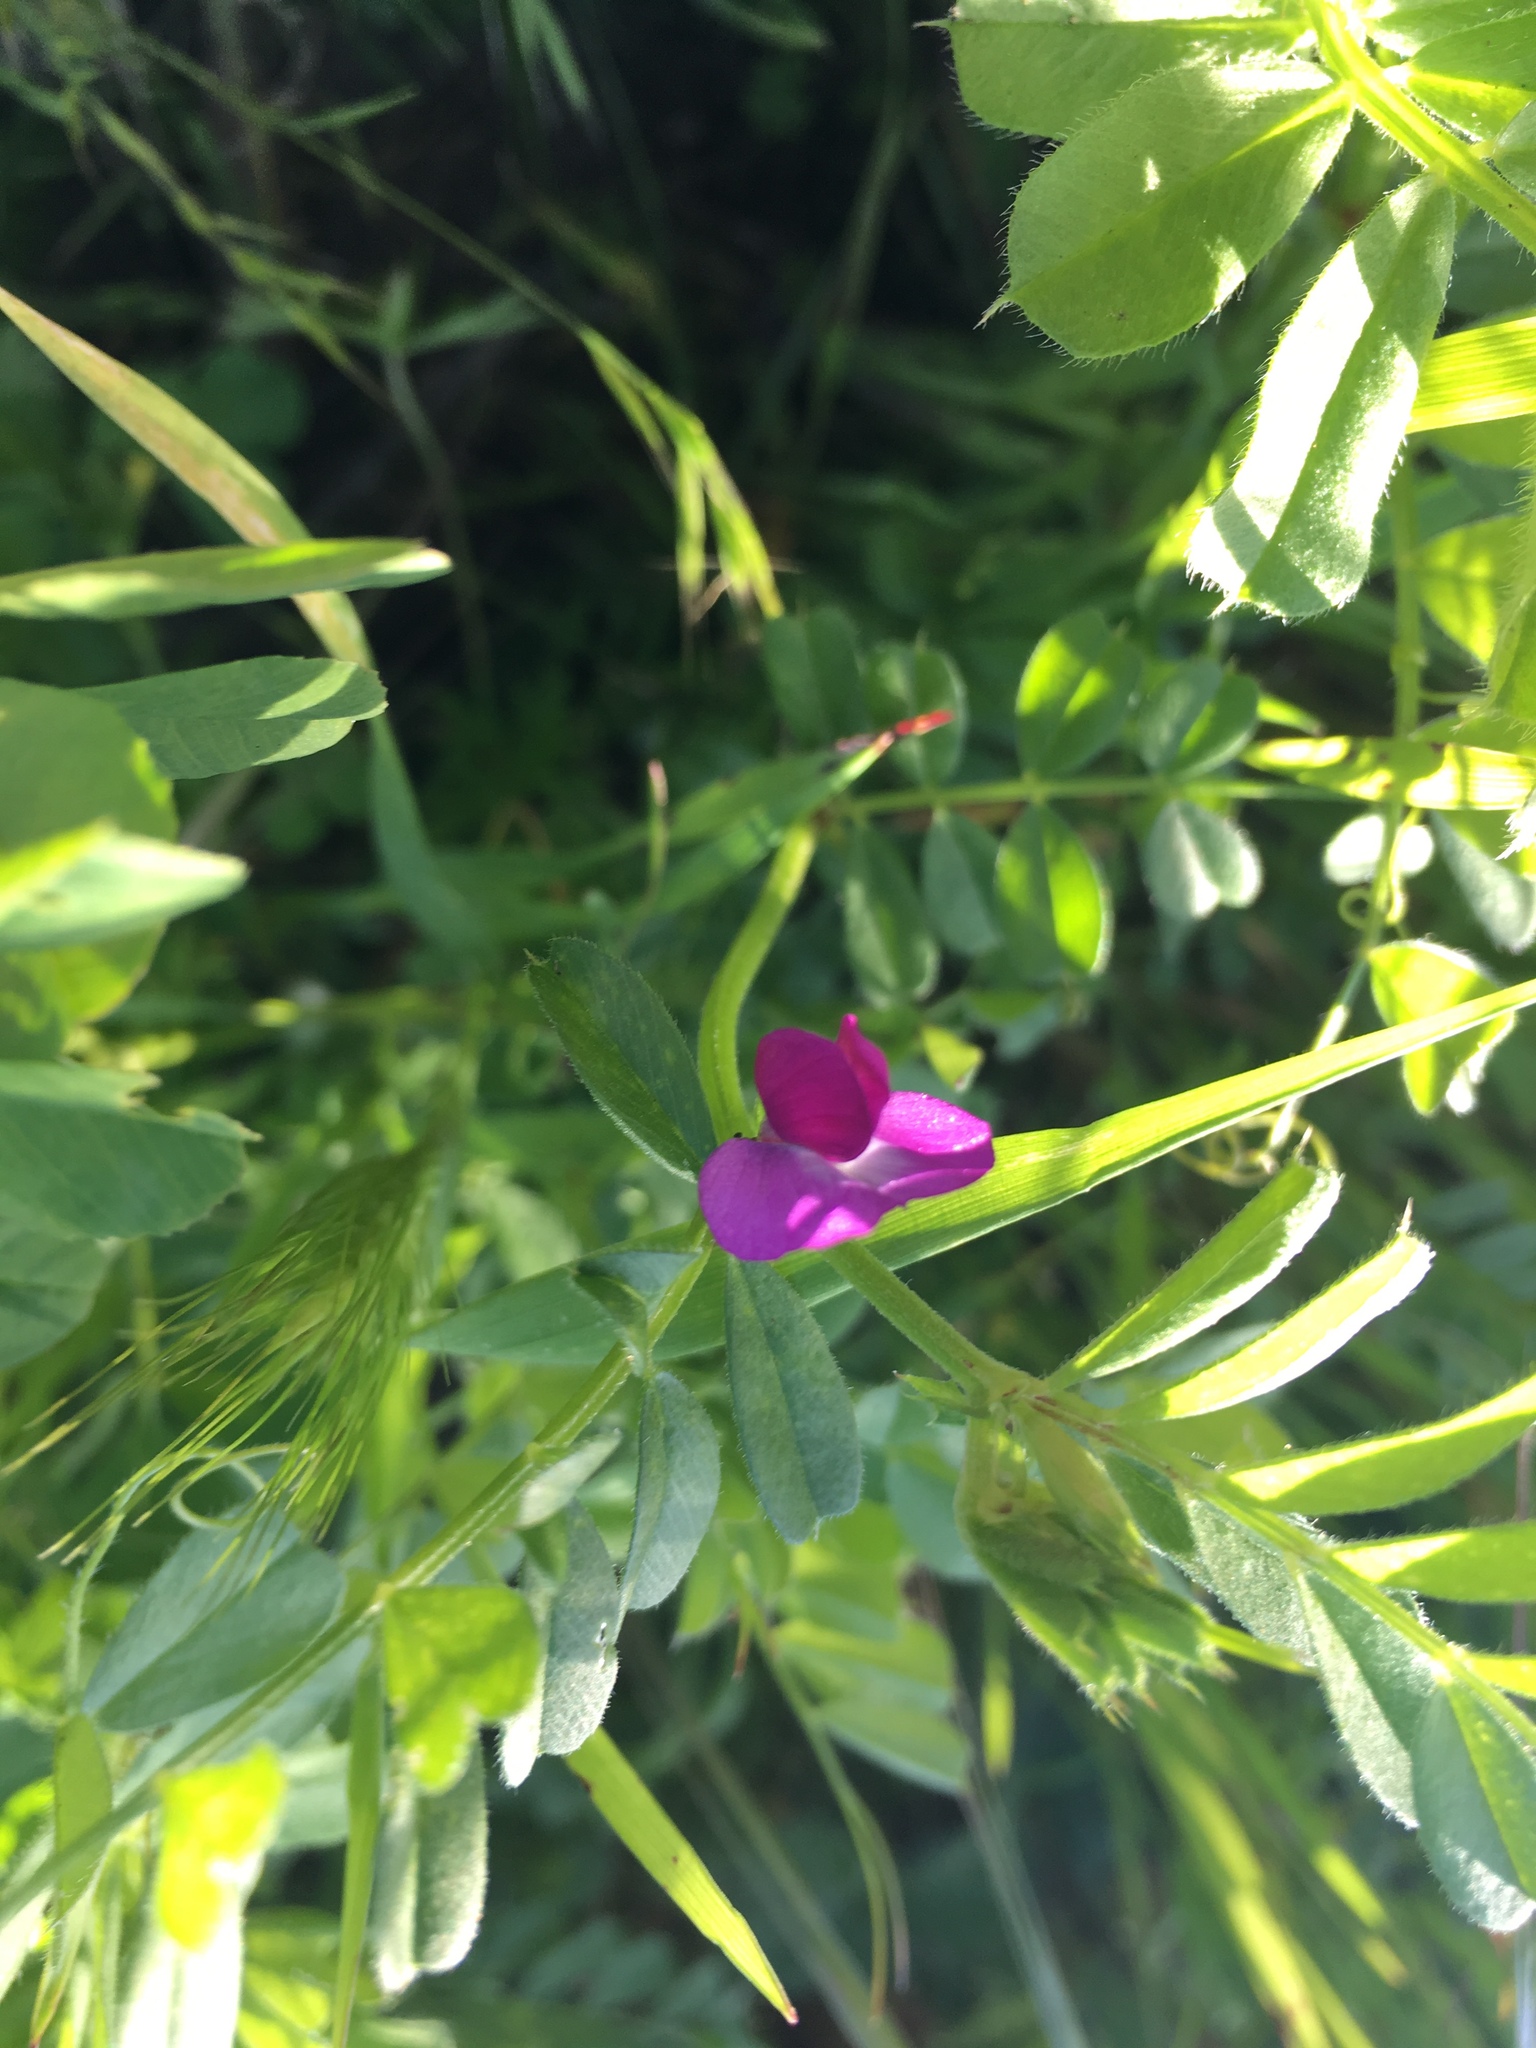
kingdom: Plantae
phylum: Tracheophyta
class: Magnoliopsida
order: Fabales
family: Fabaceae
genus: Vicia
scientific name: Vicia sativa
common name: Garden vetch
